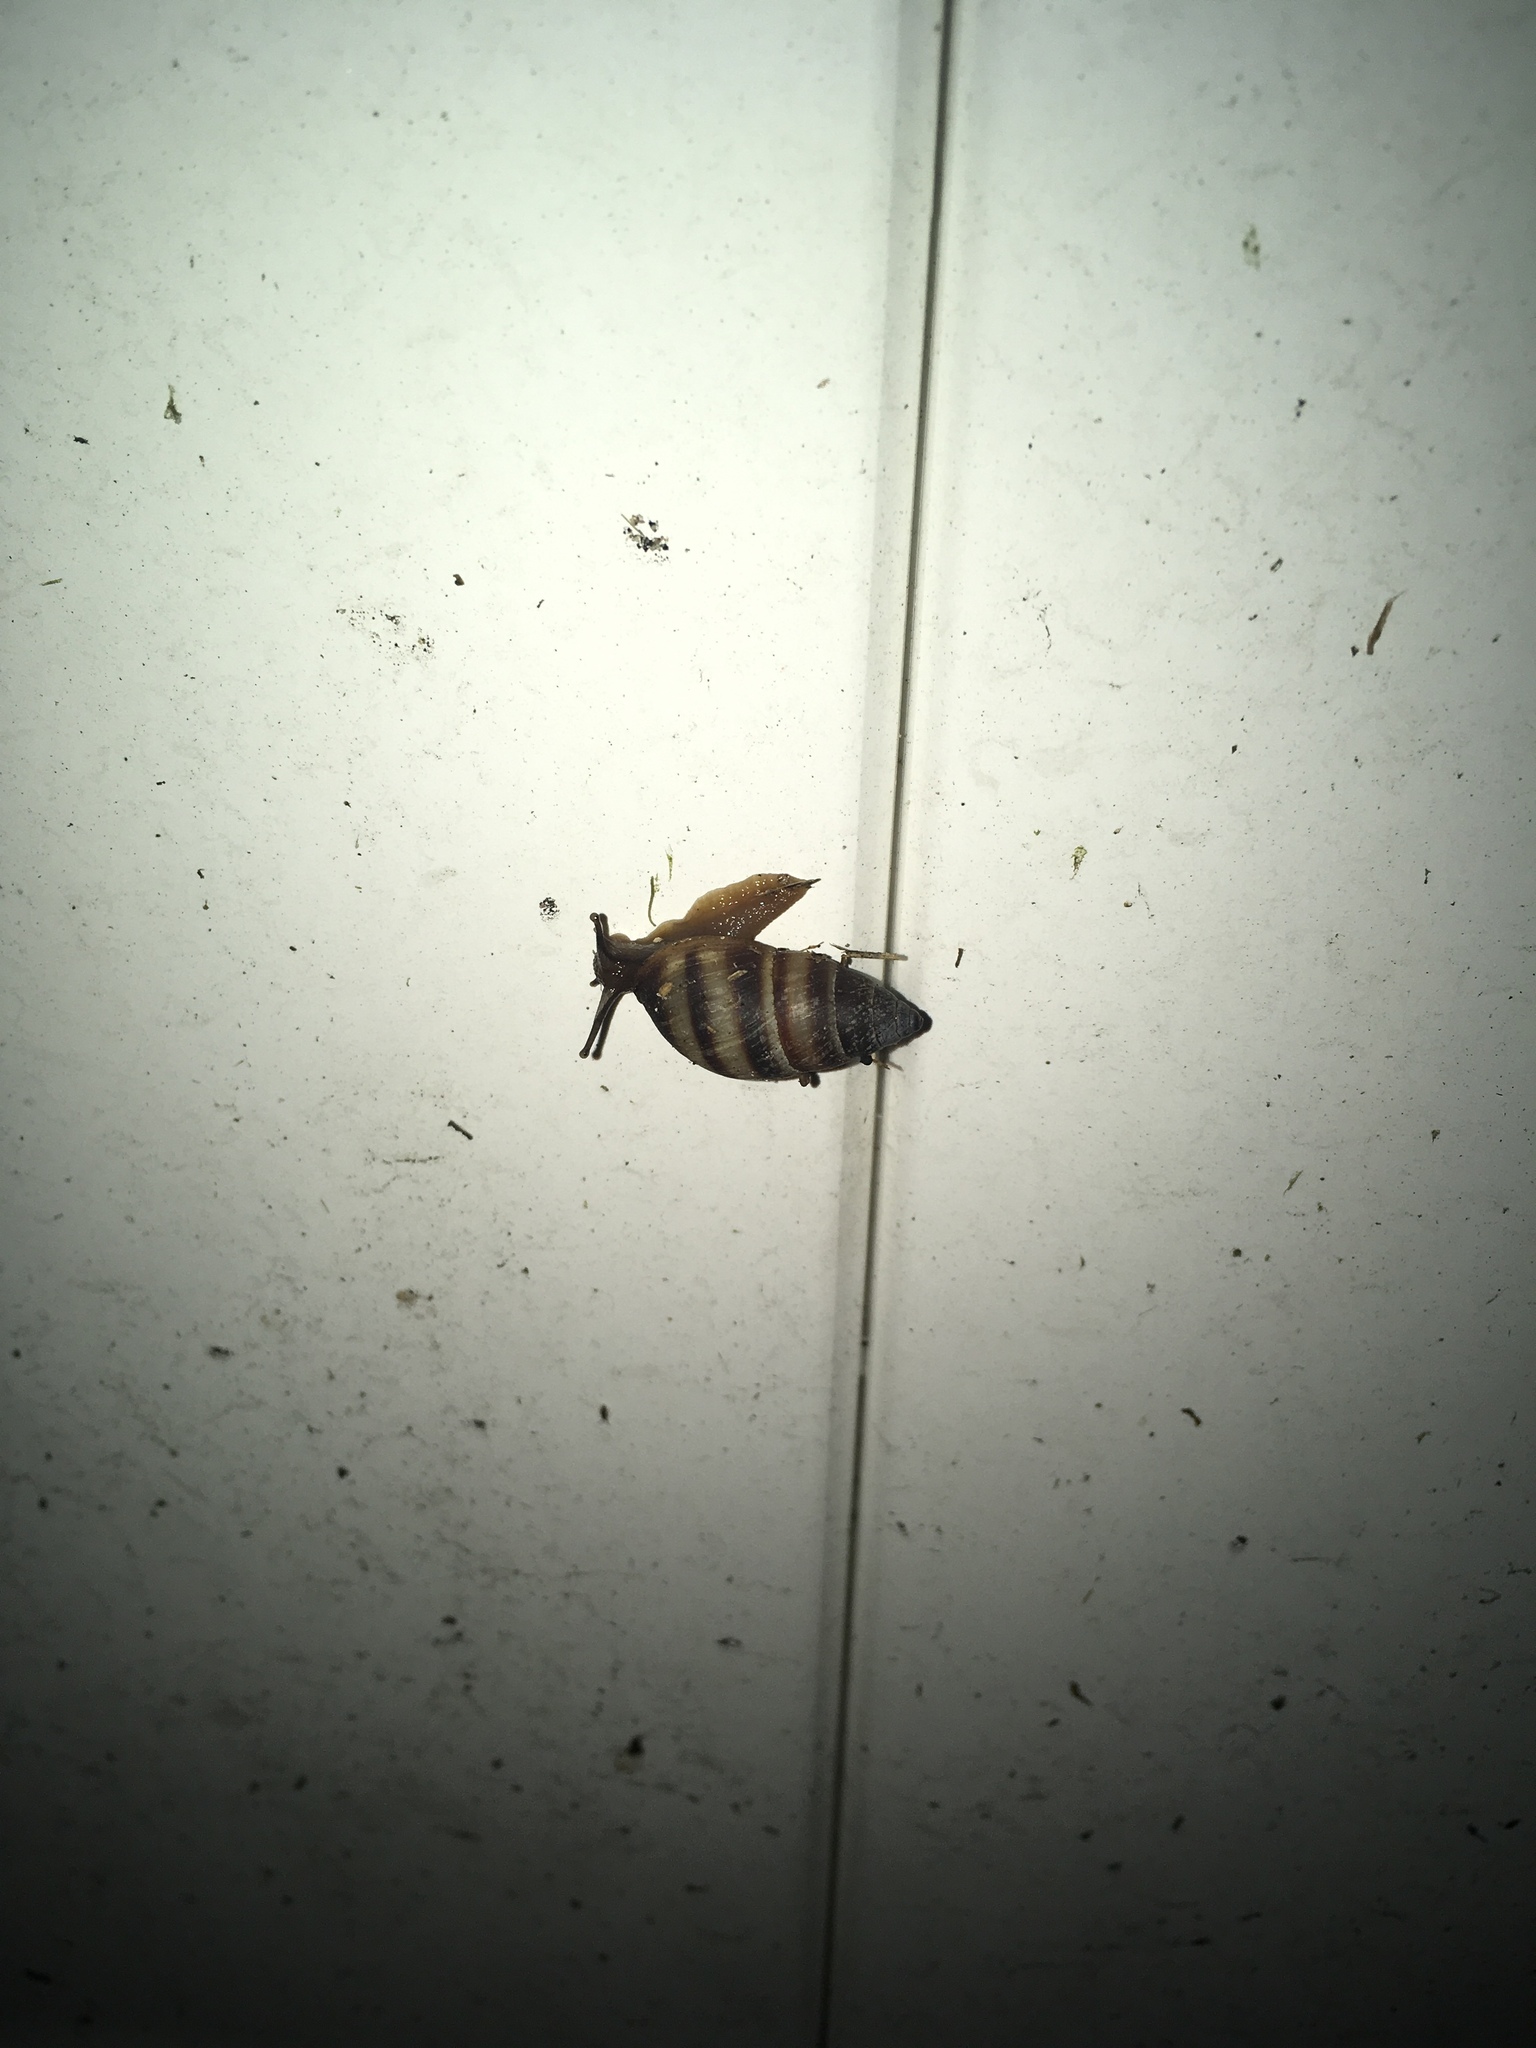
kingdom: Animalia
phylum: Mollusca
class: Gastropoda
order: Stylommatophora
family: Bulimulidae
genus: Bulimulus
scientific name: Bulimulus guadalupensis
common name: West indian bulimulus
